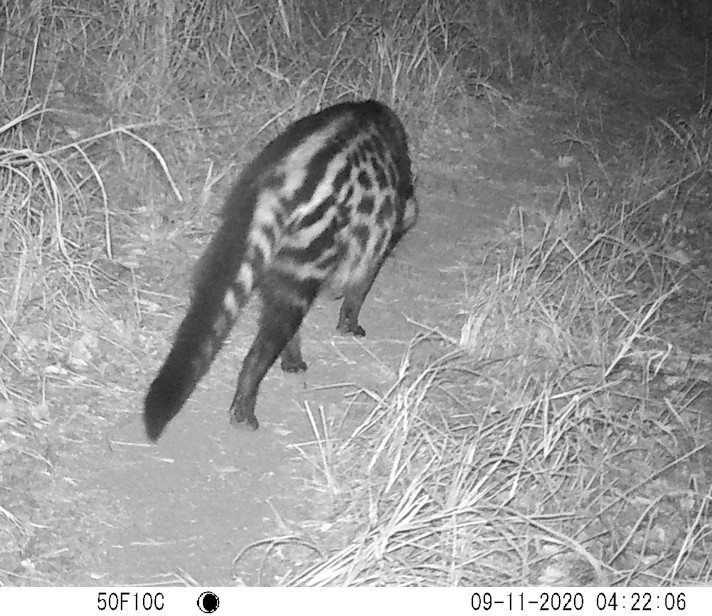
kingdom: Animalia
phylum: Chordata
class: Mammalia
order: Carnivora
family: Viverridae
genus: Civettictis
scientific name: Civettictis civetta
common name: African civet
